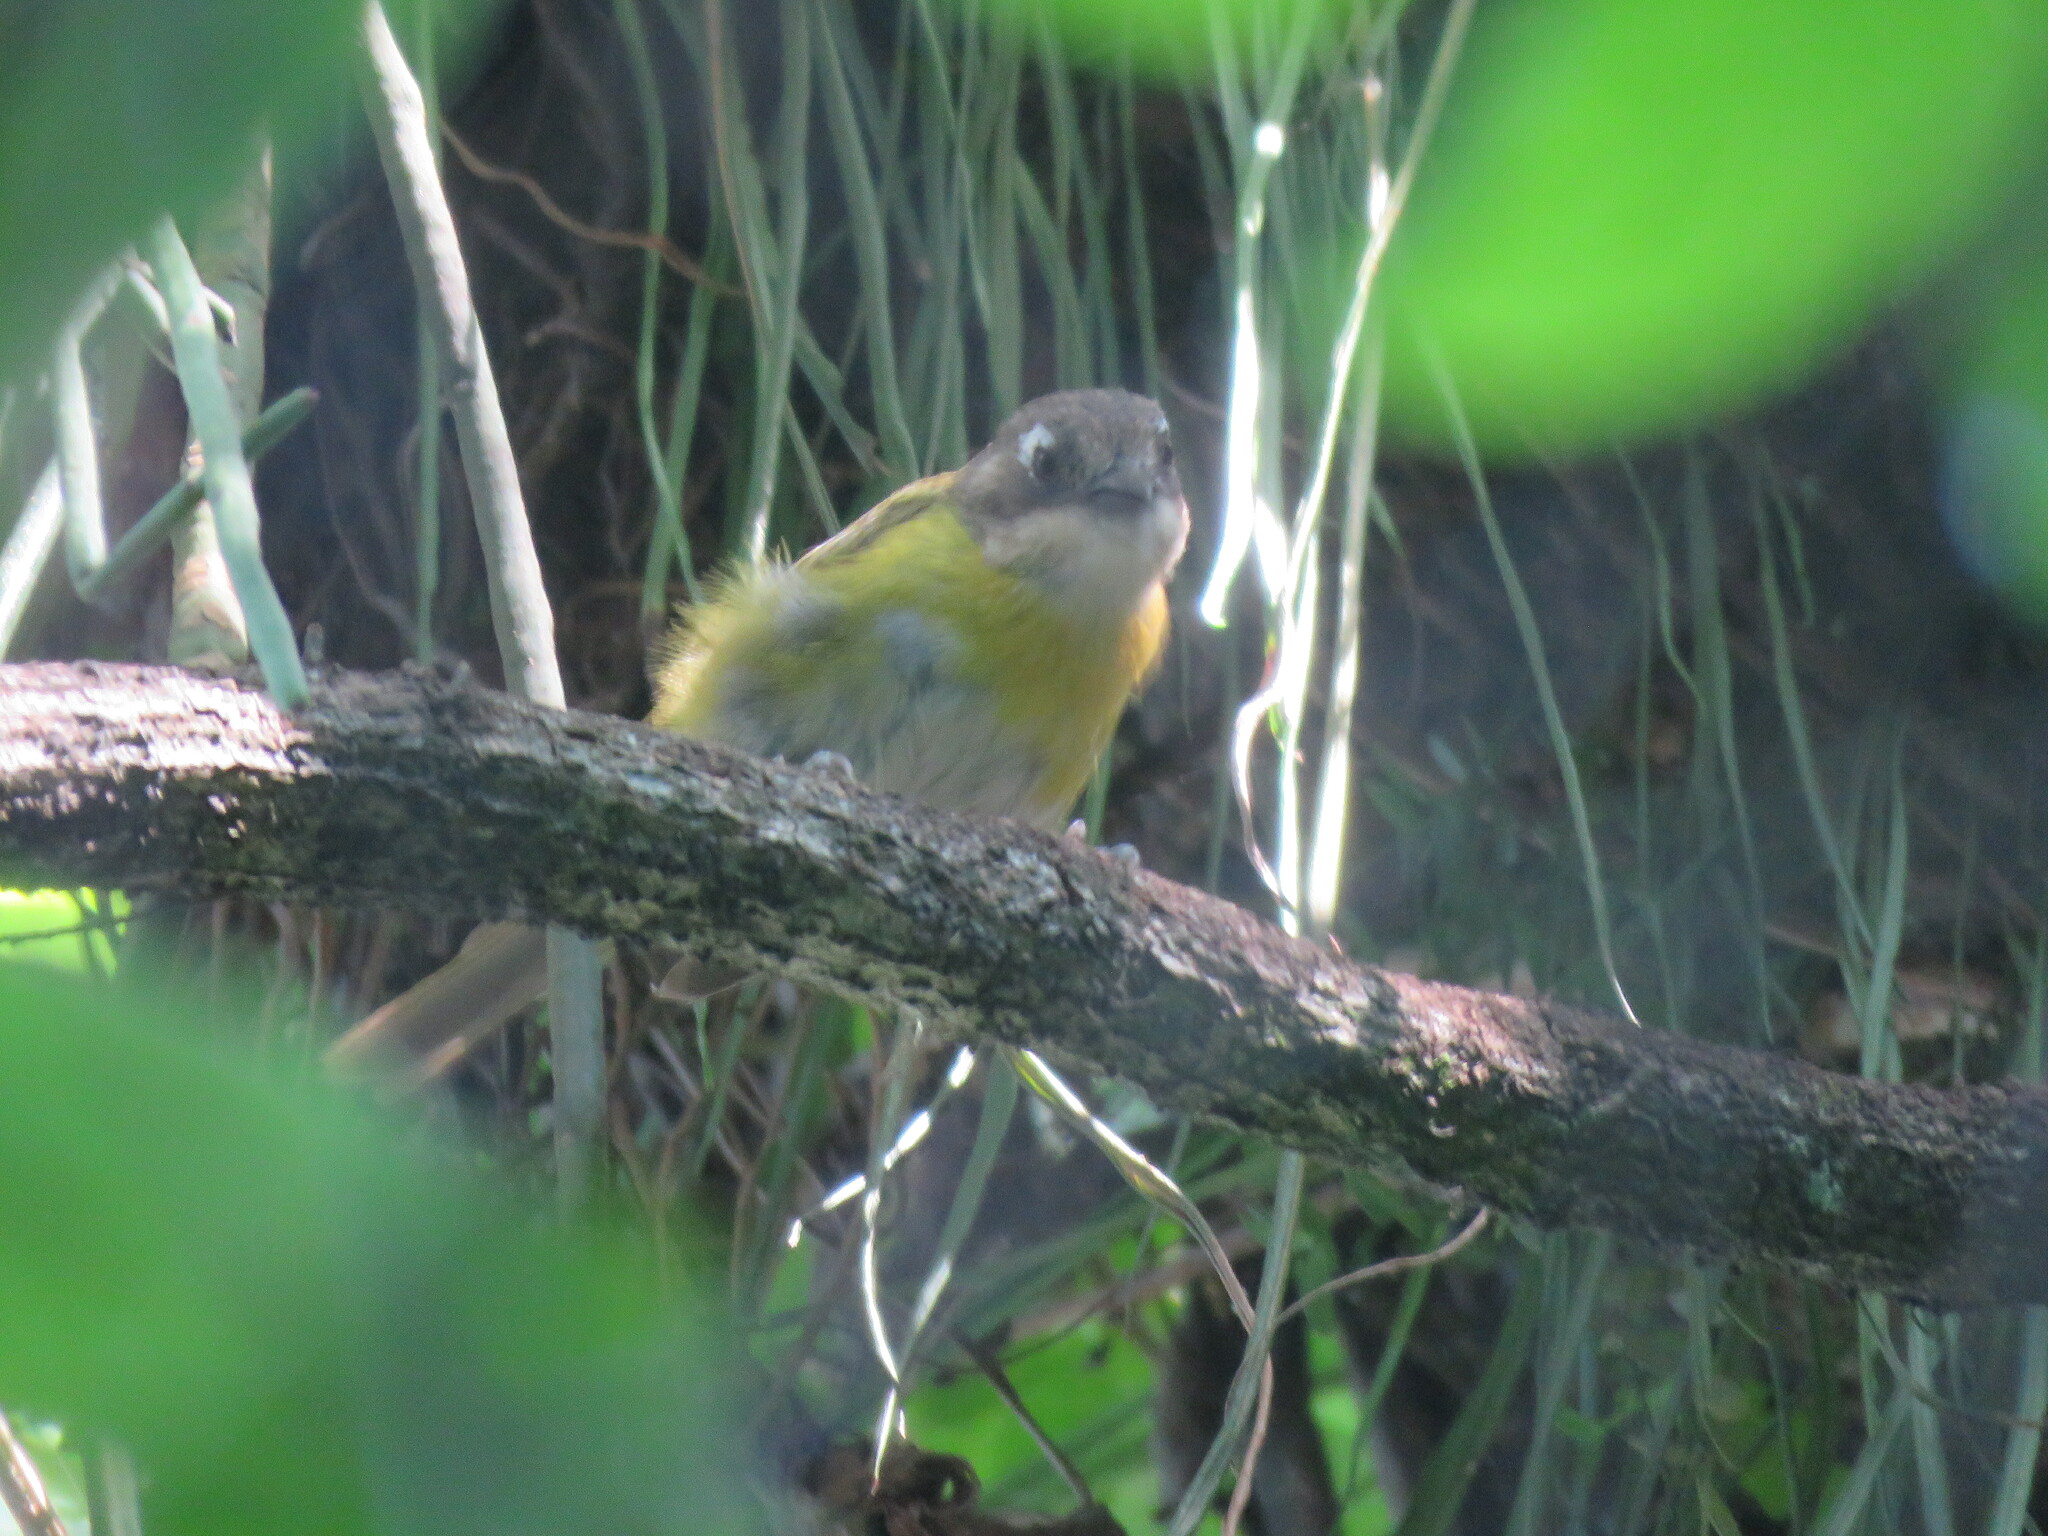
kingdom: Animalia
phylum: Chordata
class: Aves
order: Passeriformes
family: Passerellidae
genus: Chlorospingus
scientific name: Chlorospingus flavopectus
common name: Common chlorospingus
